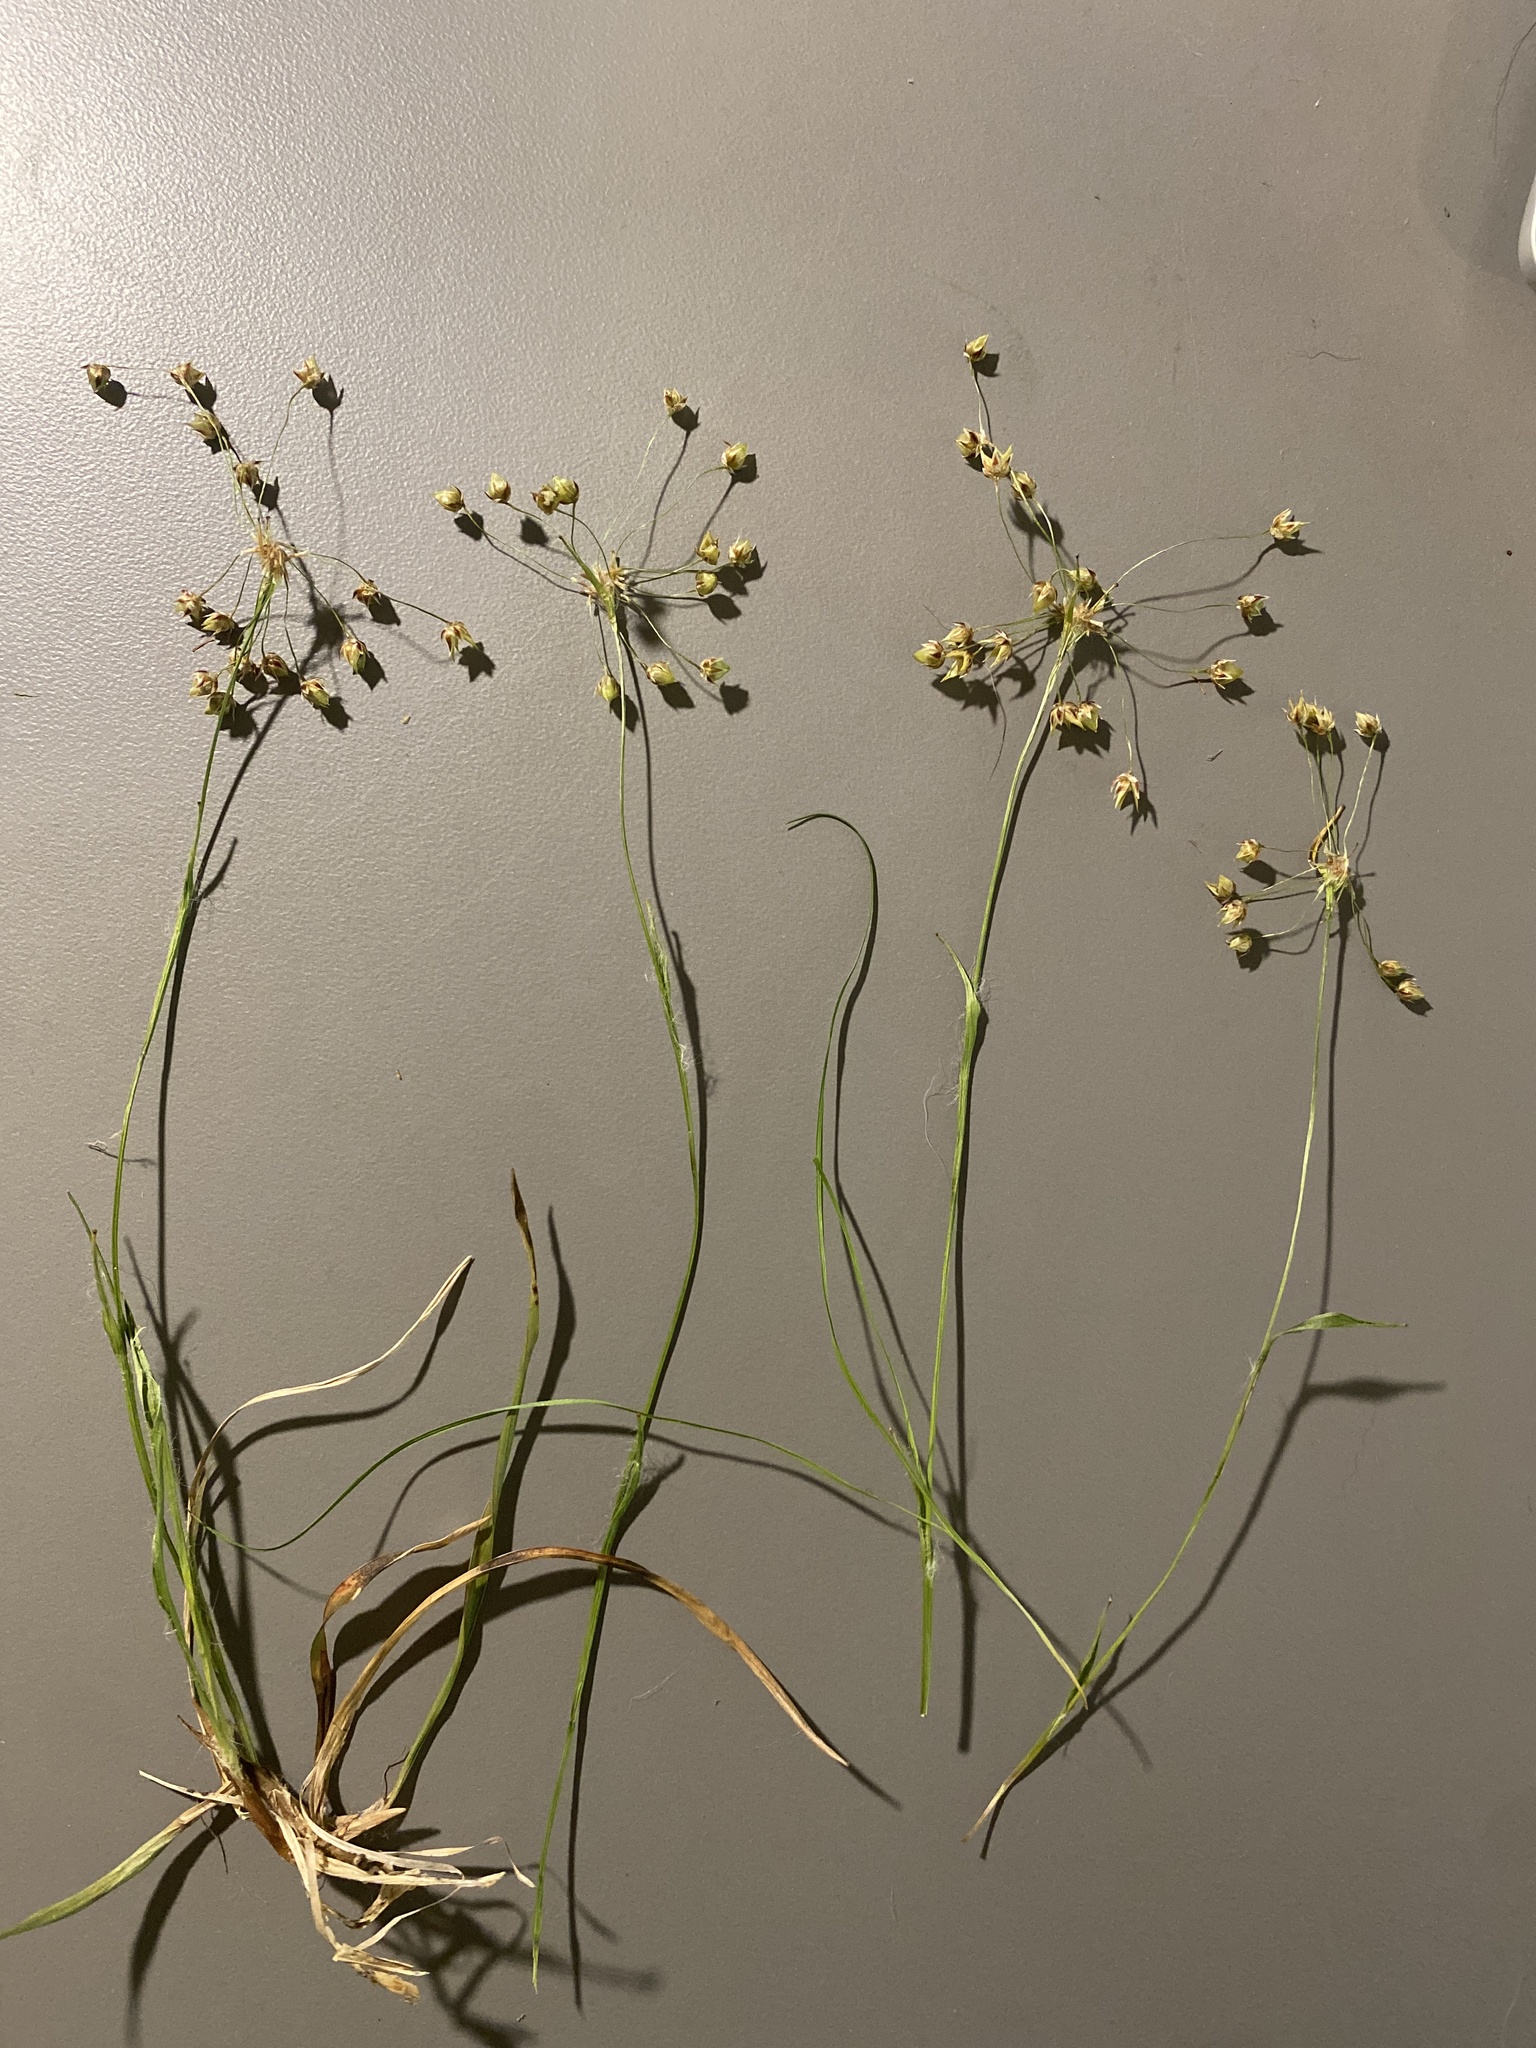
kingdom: Plantae
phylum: Tracheophyta
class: Liliopsida
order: Poales
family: Juncaceae
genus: Luzula
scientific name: Luzula acuminata
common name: Hairy woodrush
